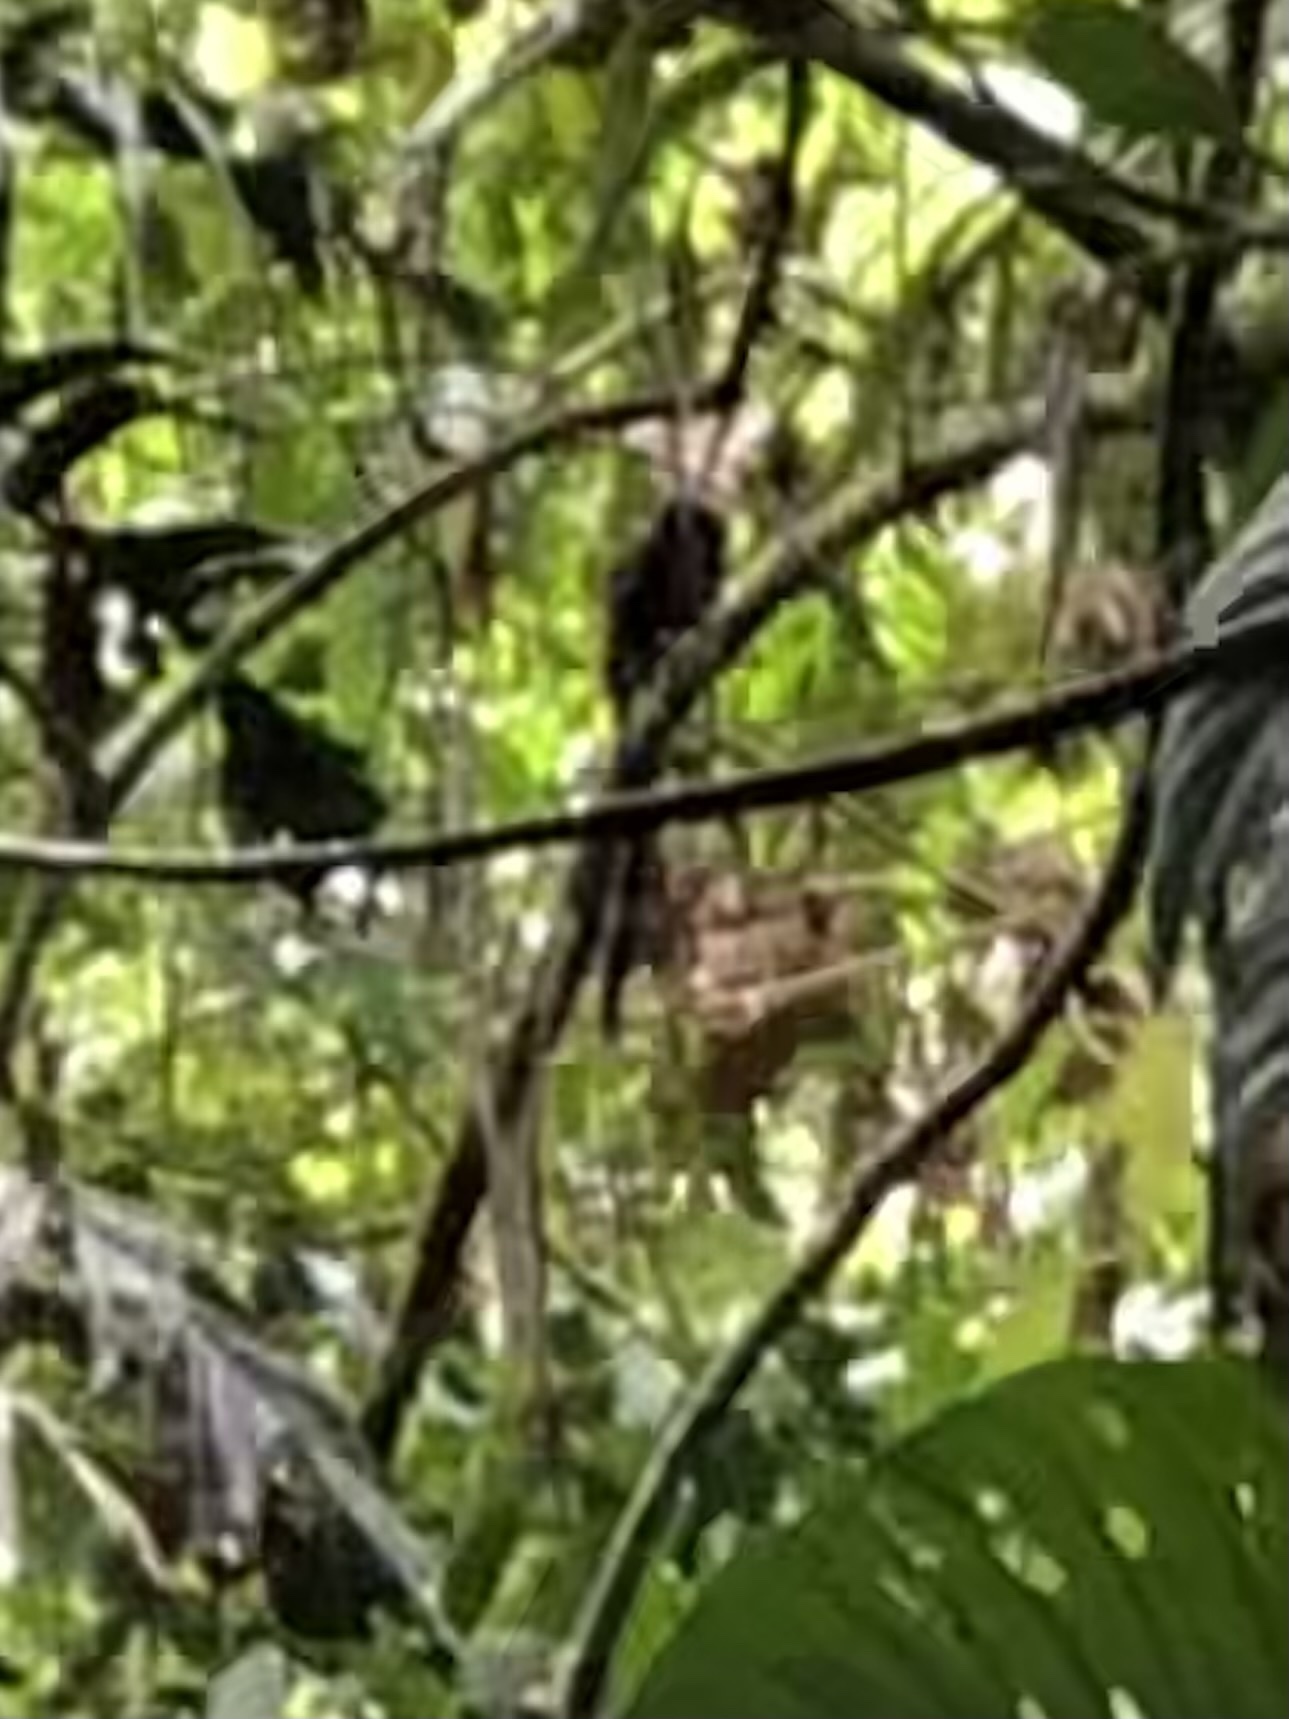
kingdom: Animalia
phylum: Chordata
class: Mammalia
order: Primates
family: Callitrichidae
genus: Leontocebus
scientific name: Leontocebus weddelli
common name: Weddell's saddle-back tamarin
